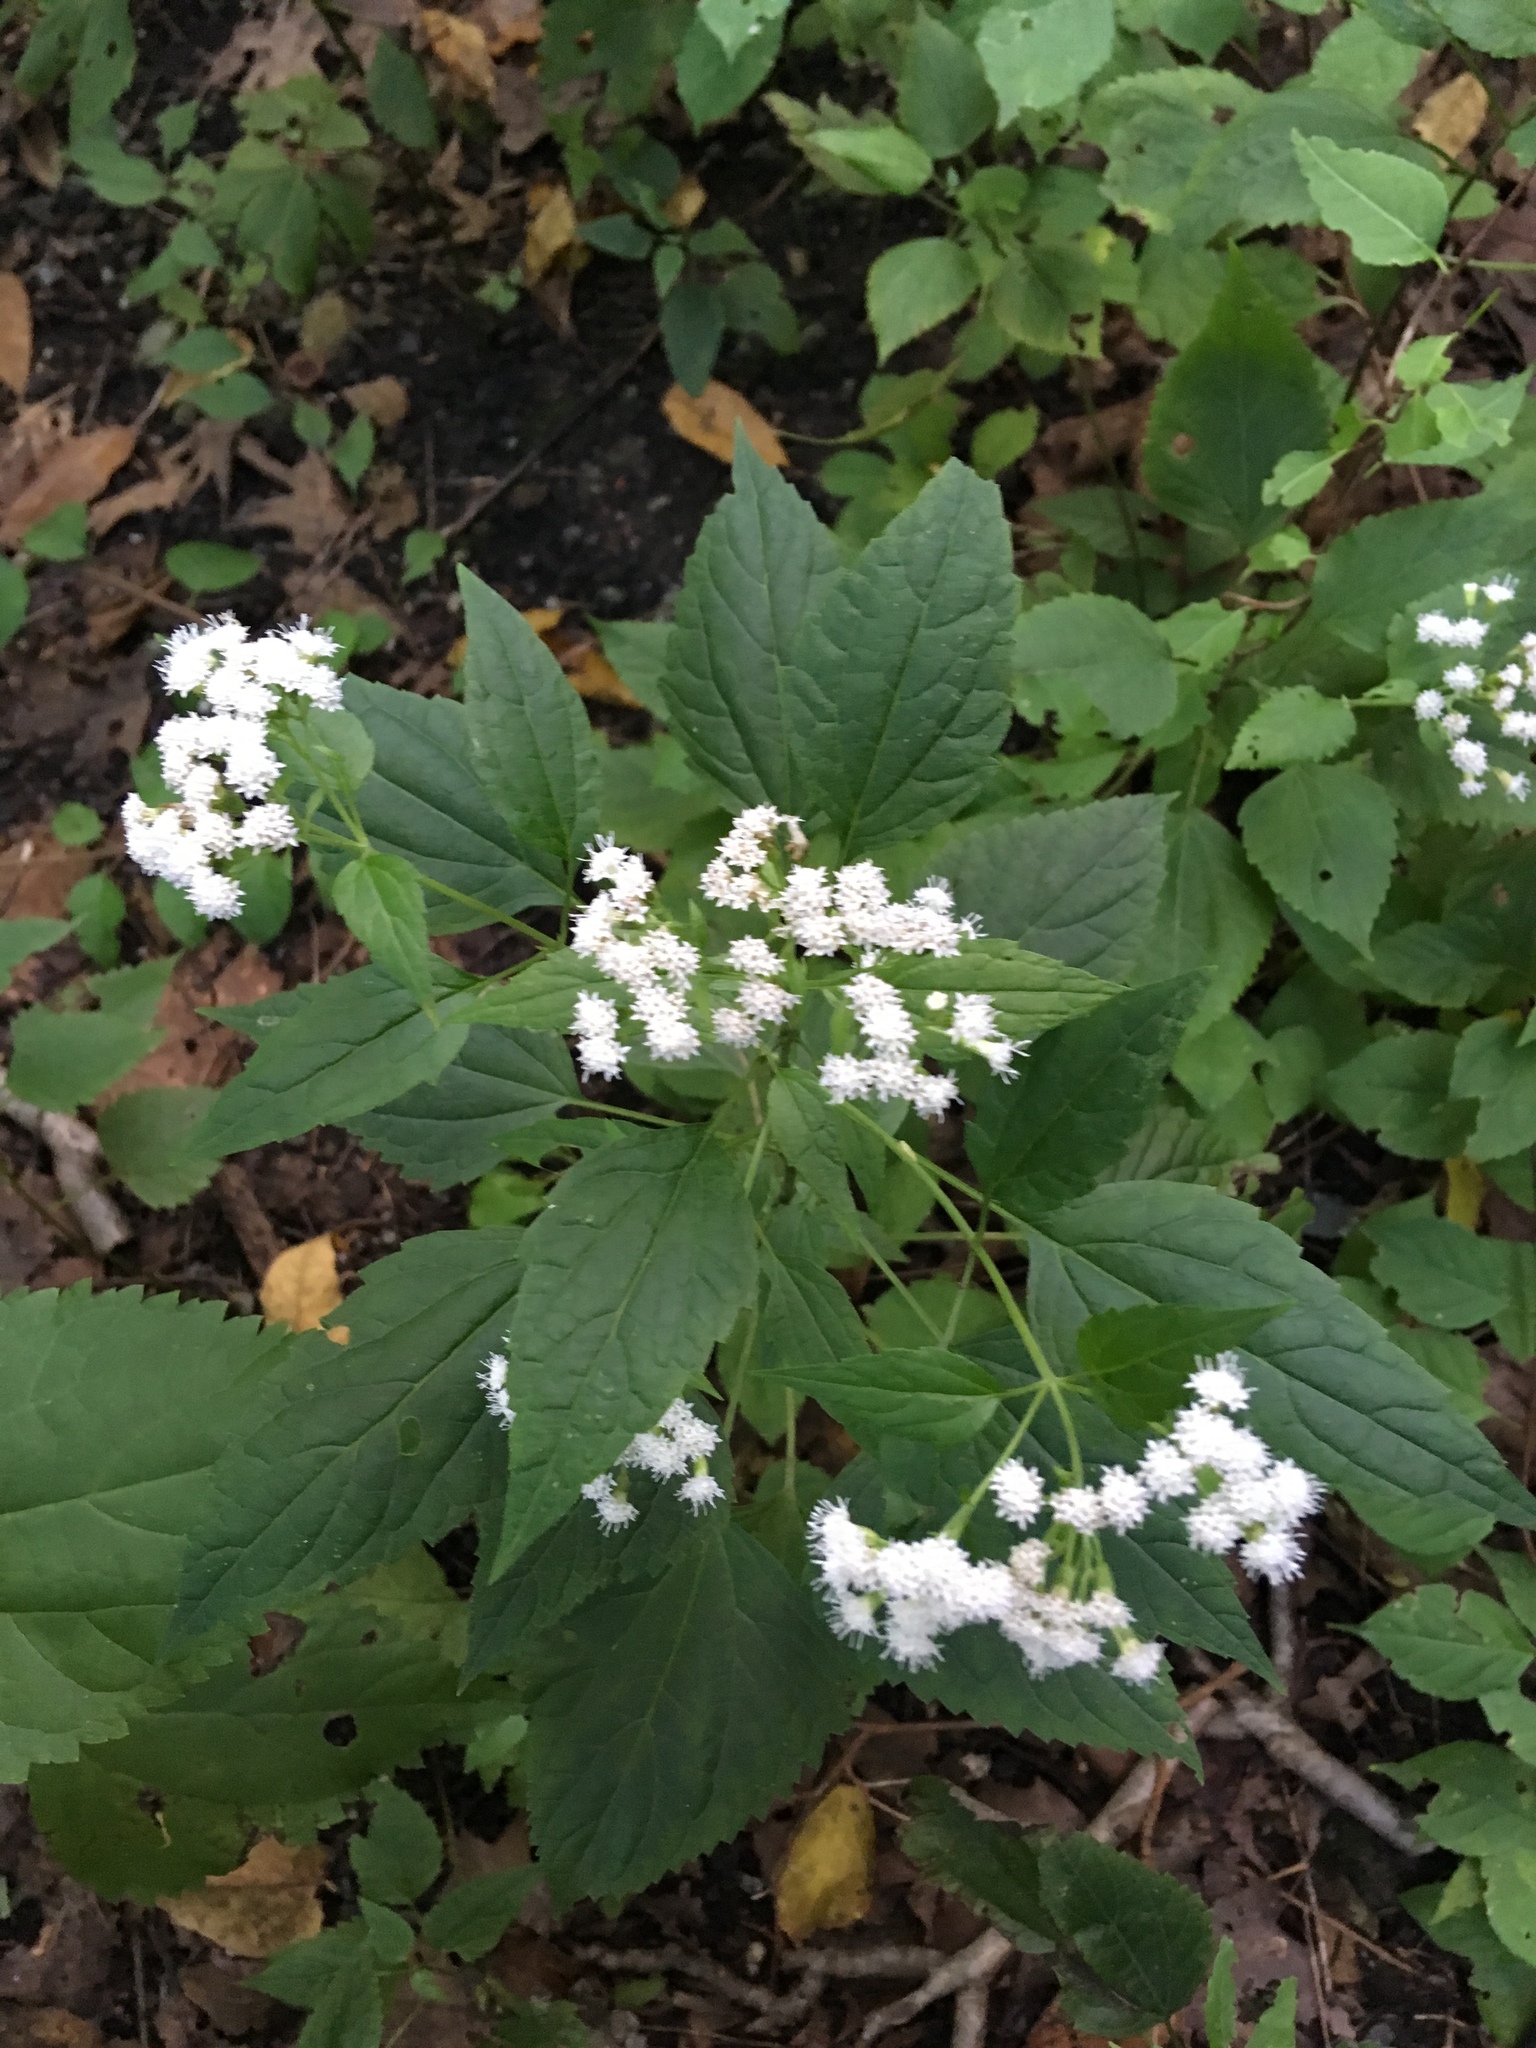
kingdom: Plantae
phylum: Tracheophyta
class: Magnoliopsida
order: Asterales
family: Asteraceae
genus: Ageratina
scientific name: Ageratina altissima
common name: White snakeroot
